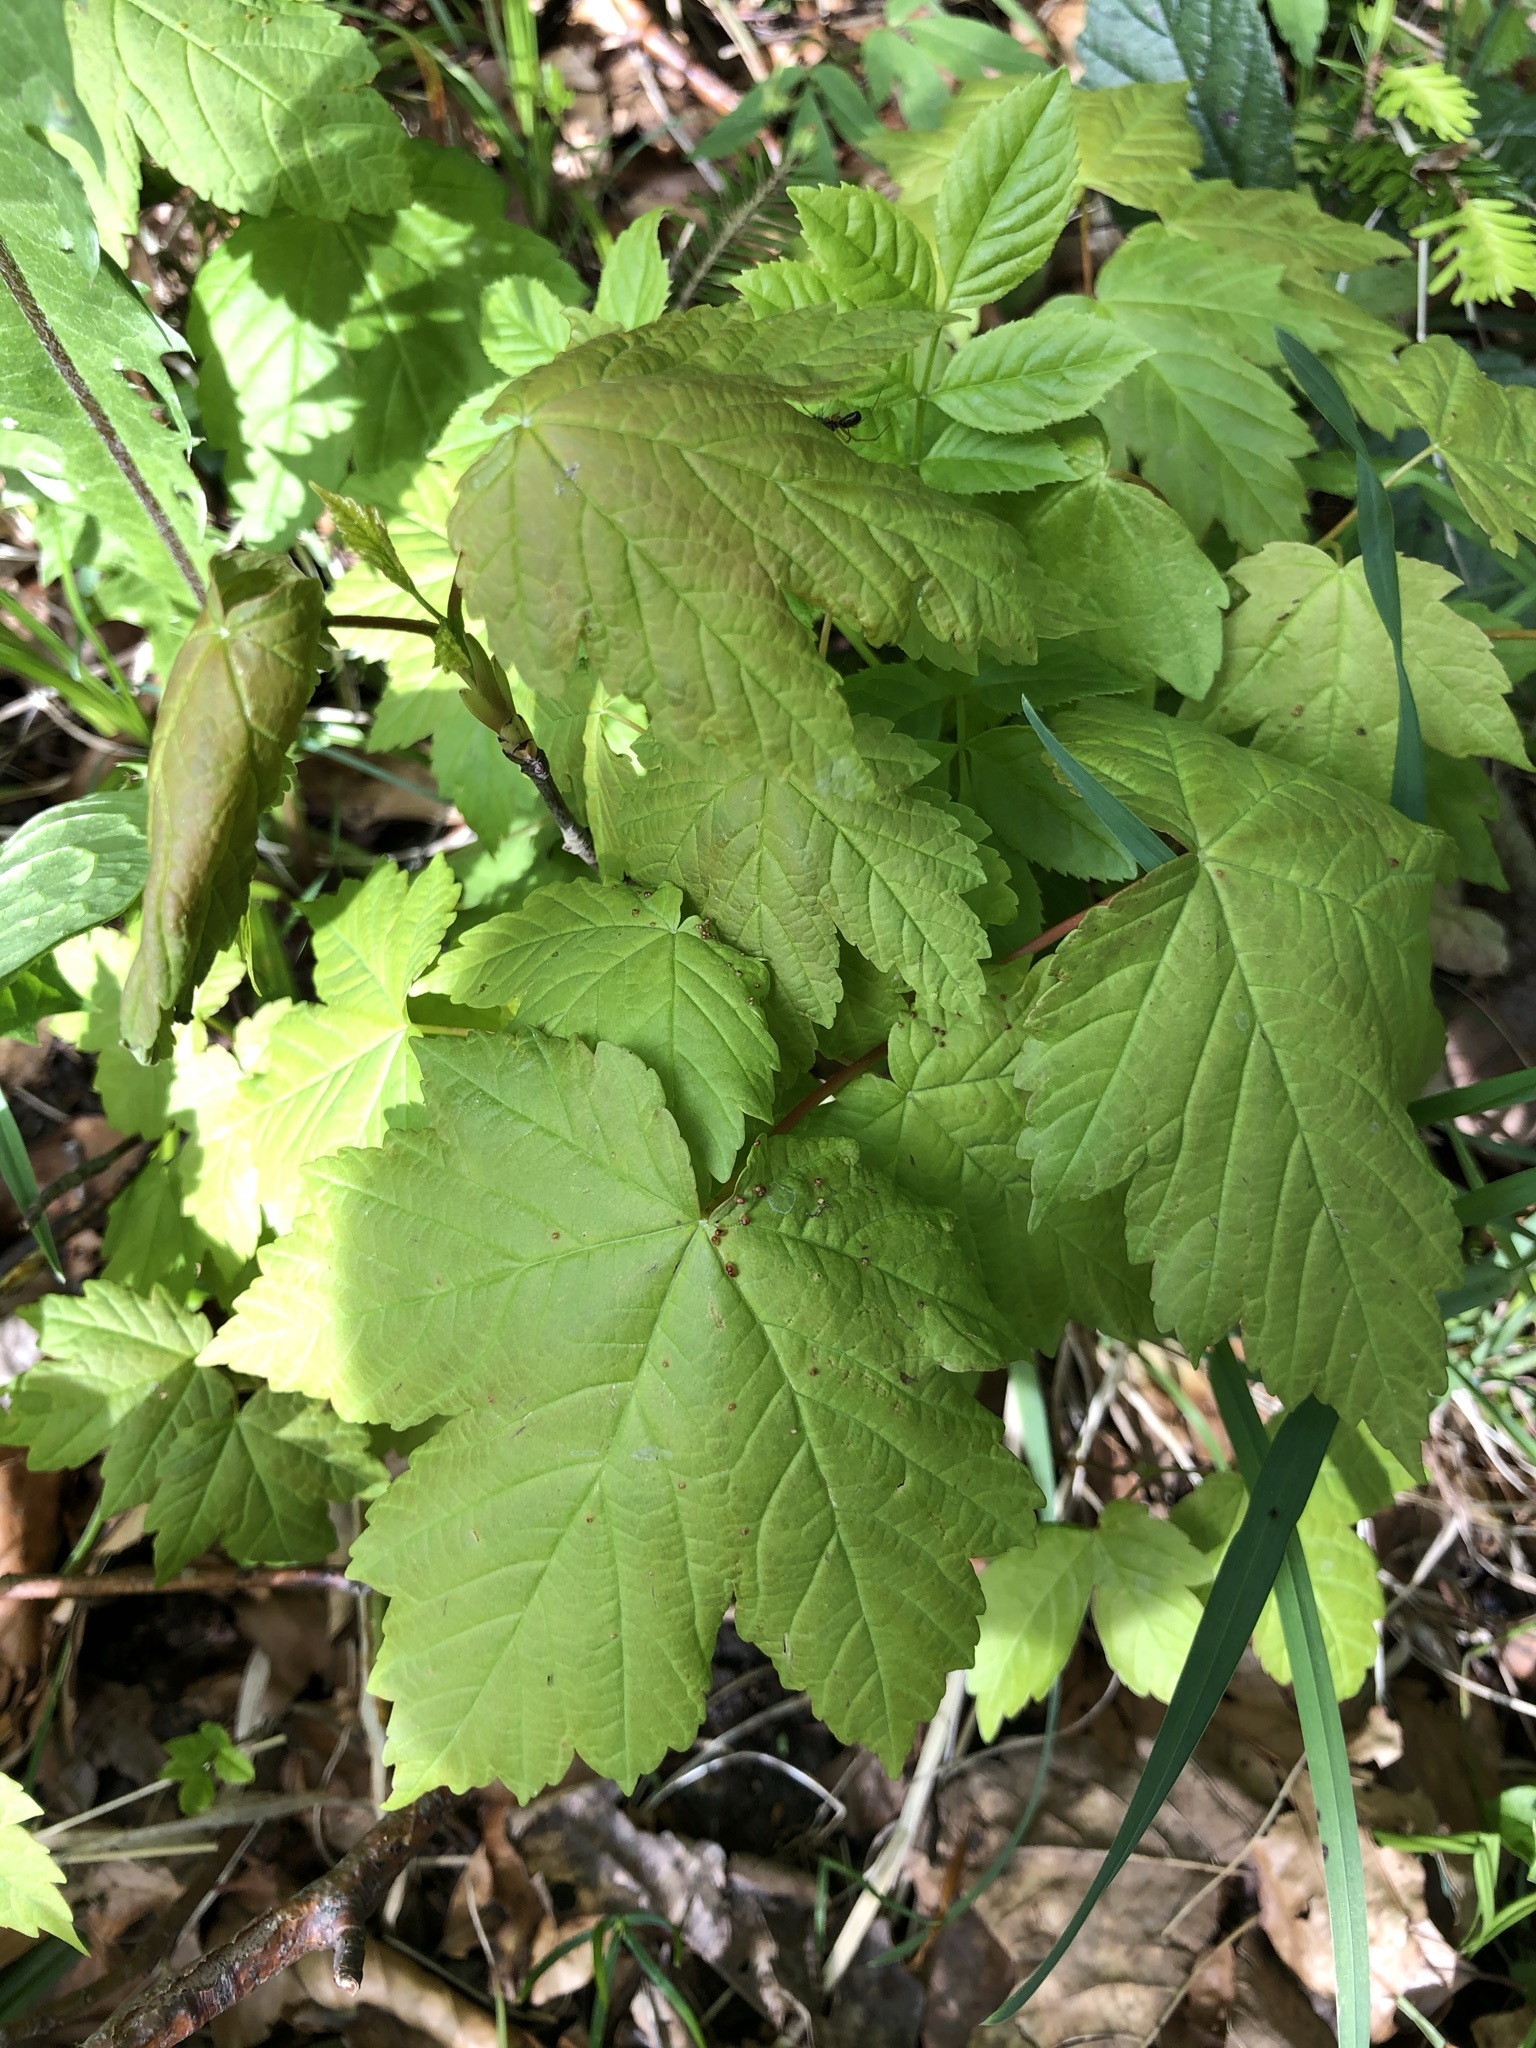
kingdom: Plantae
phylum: Tracheophyta
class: Magnoliopsida
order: Sapindales
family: Sapindaceae
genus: Acer
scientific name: Acer pseudoplatanus
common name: Sycamore
